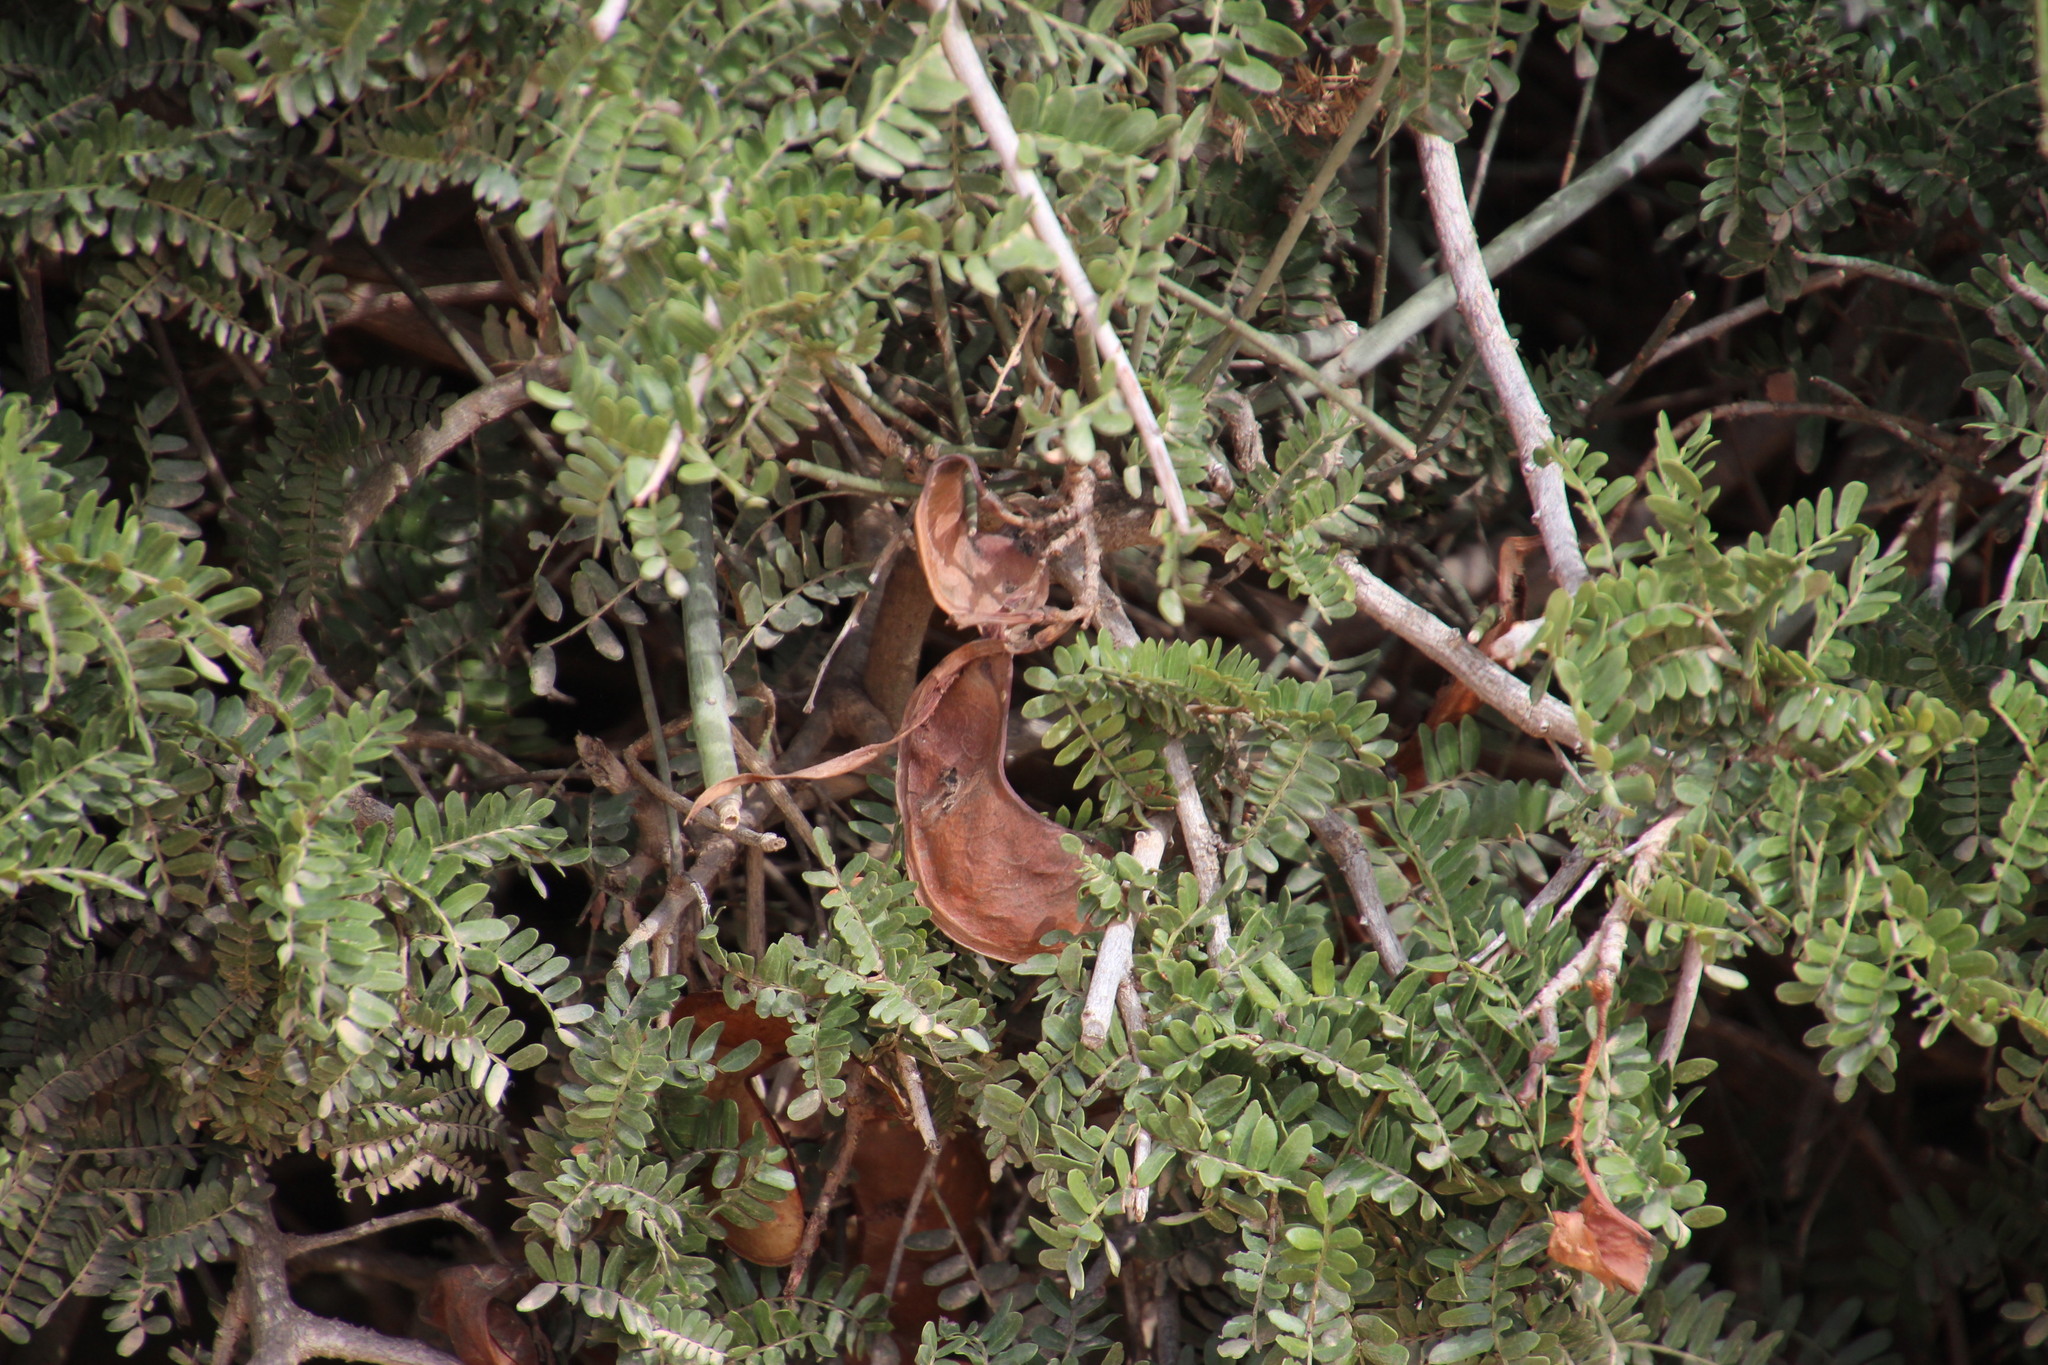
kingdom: Plantae
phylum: Tracheophyta
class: Magnoliopsida
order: Fabales
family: Fabaceae
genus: Schotia
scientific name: Schotia afra
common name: Hottentot's bean
